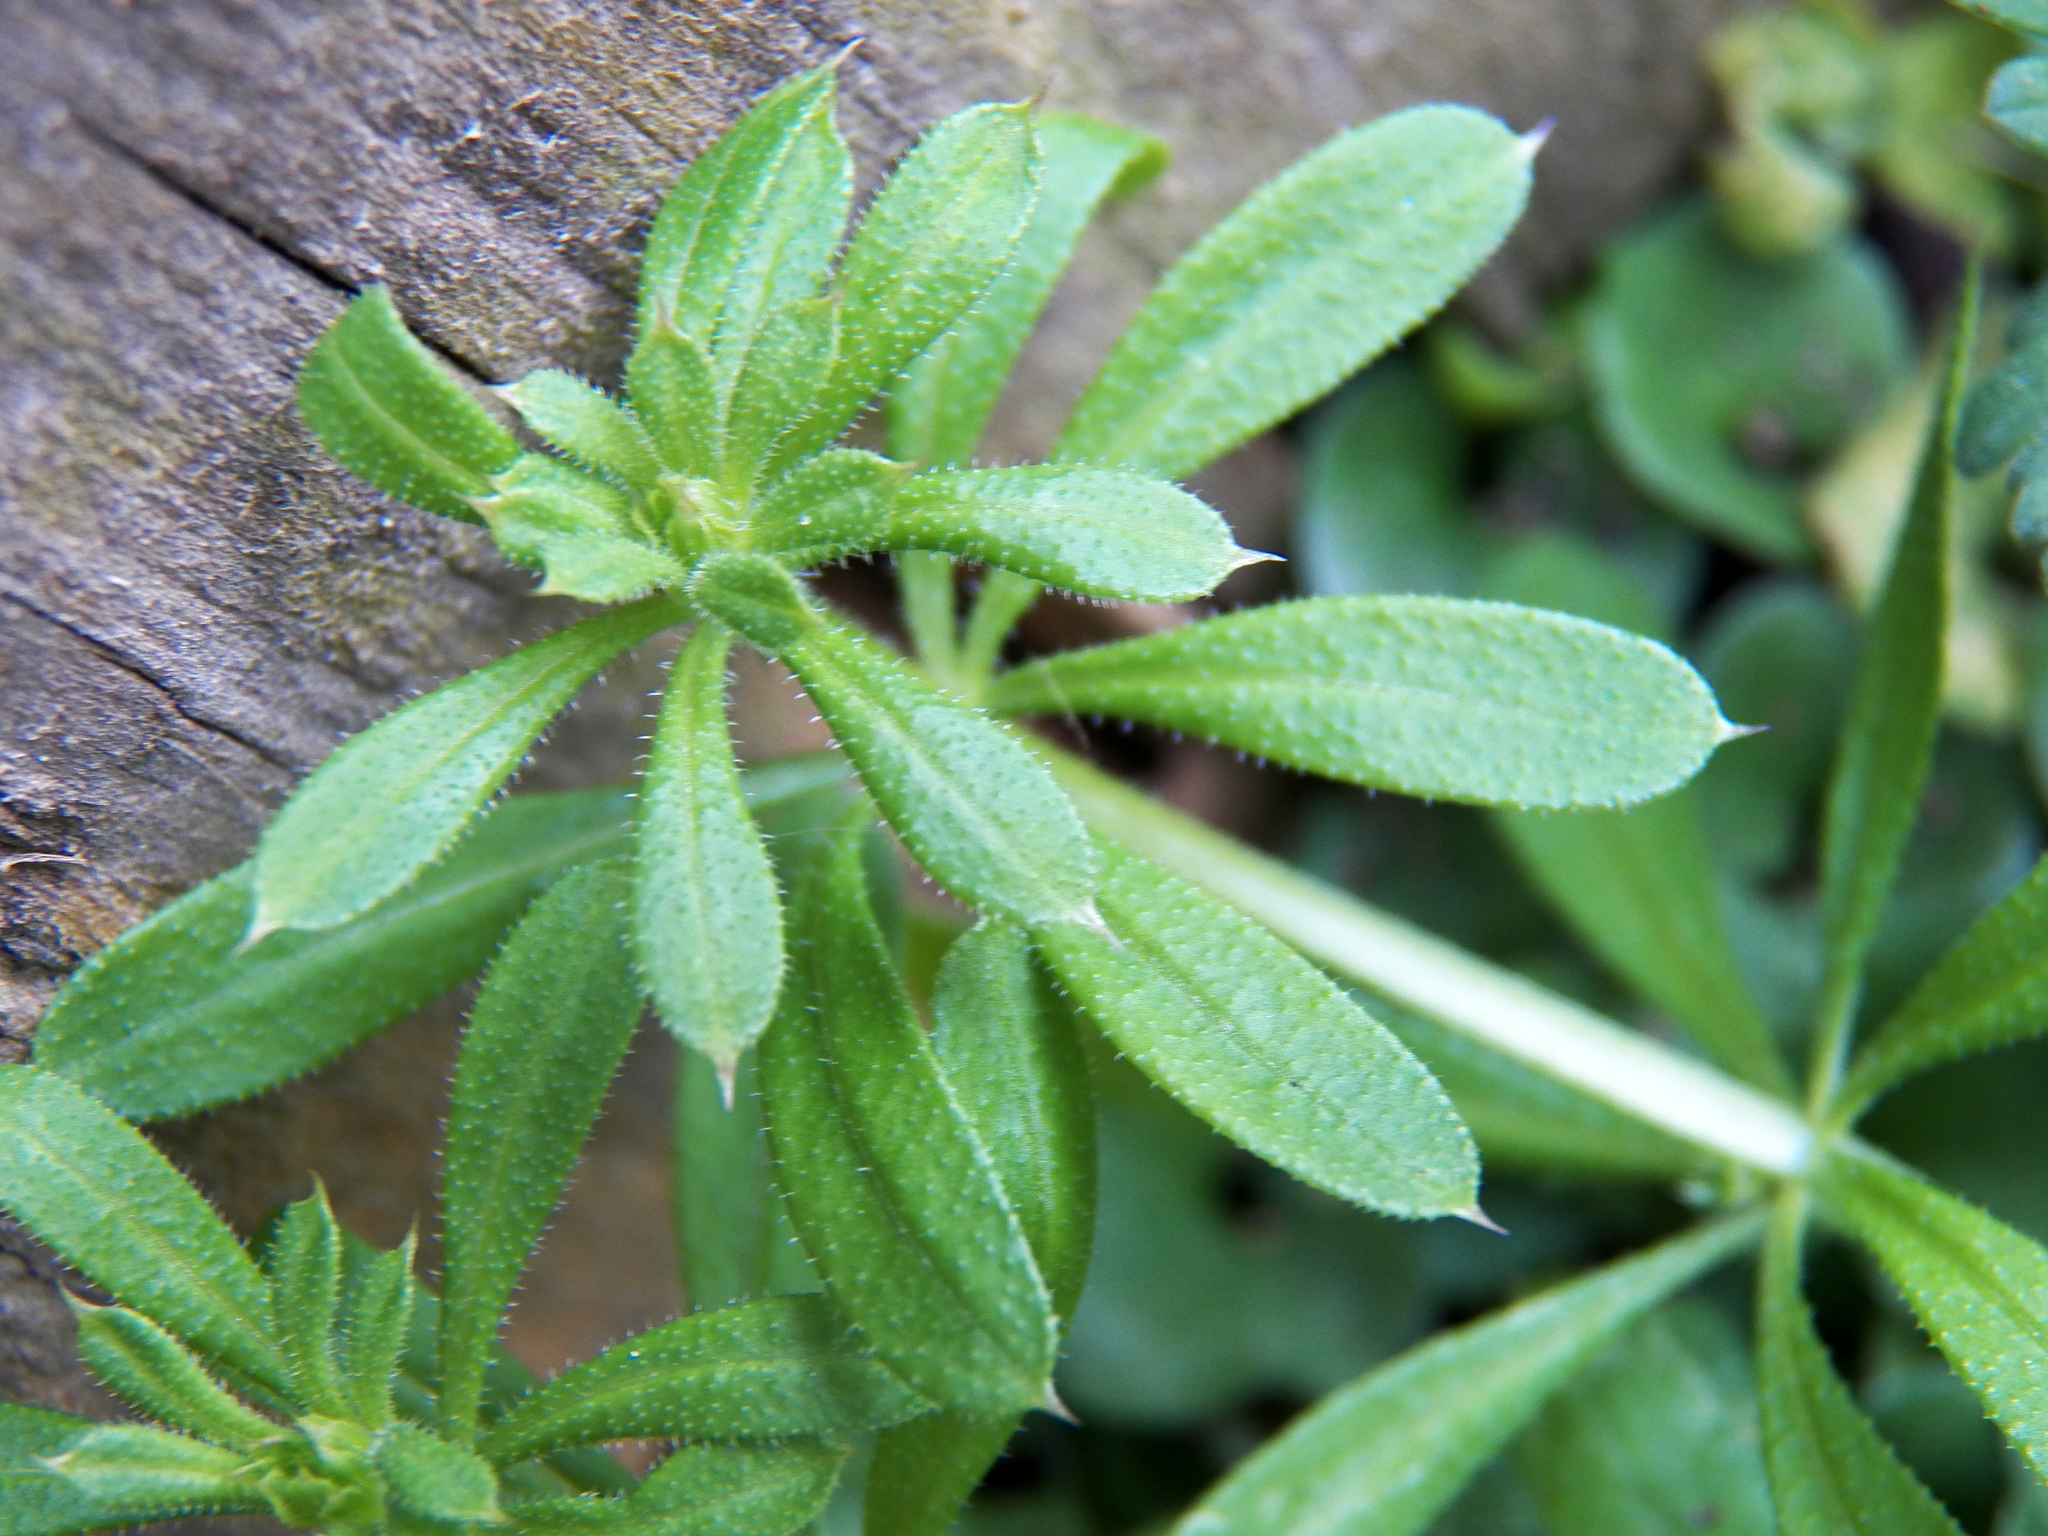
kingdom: Plantae
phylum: Tracheophyta
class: Magnoliopsida
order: Gentianales
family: Rubiaceae
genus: Galium
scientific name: Galium aparine
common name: Cleavers
